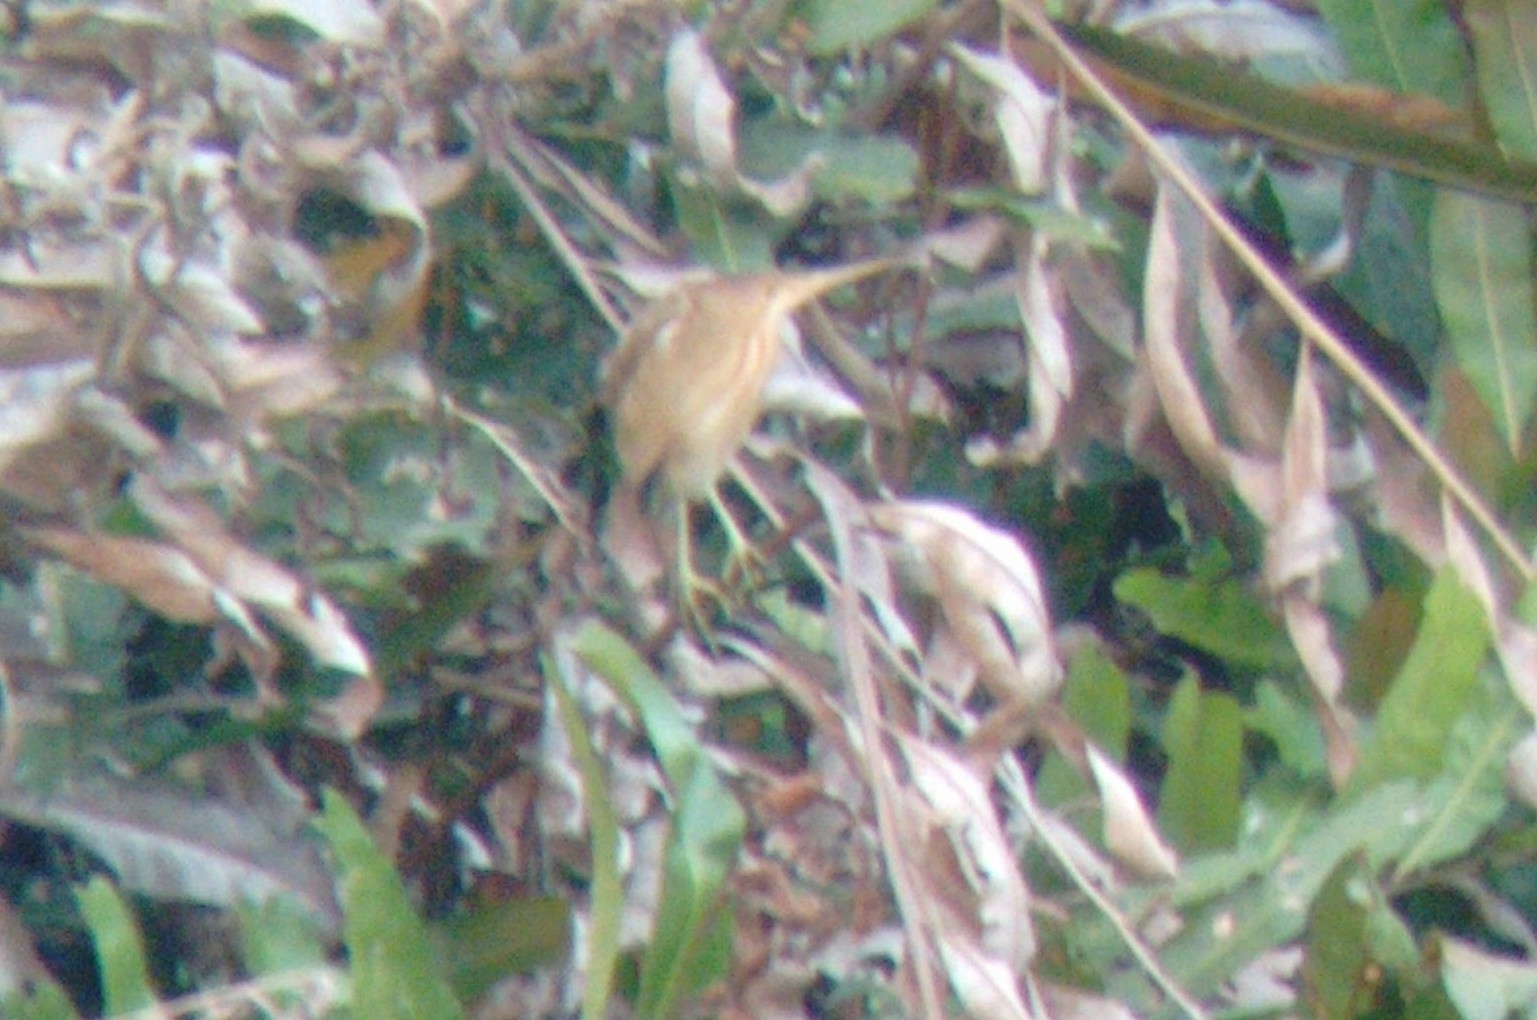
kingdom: Animalia
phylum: Chordata
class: Aves
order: Pelecaniformes
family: Ardeidae
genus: Ixobrychus
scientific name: Ixobrychus sinensis
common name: Yellow bittern
